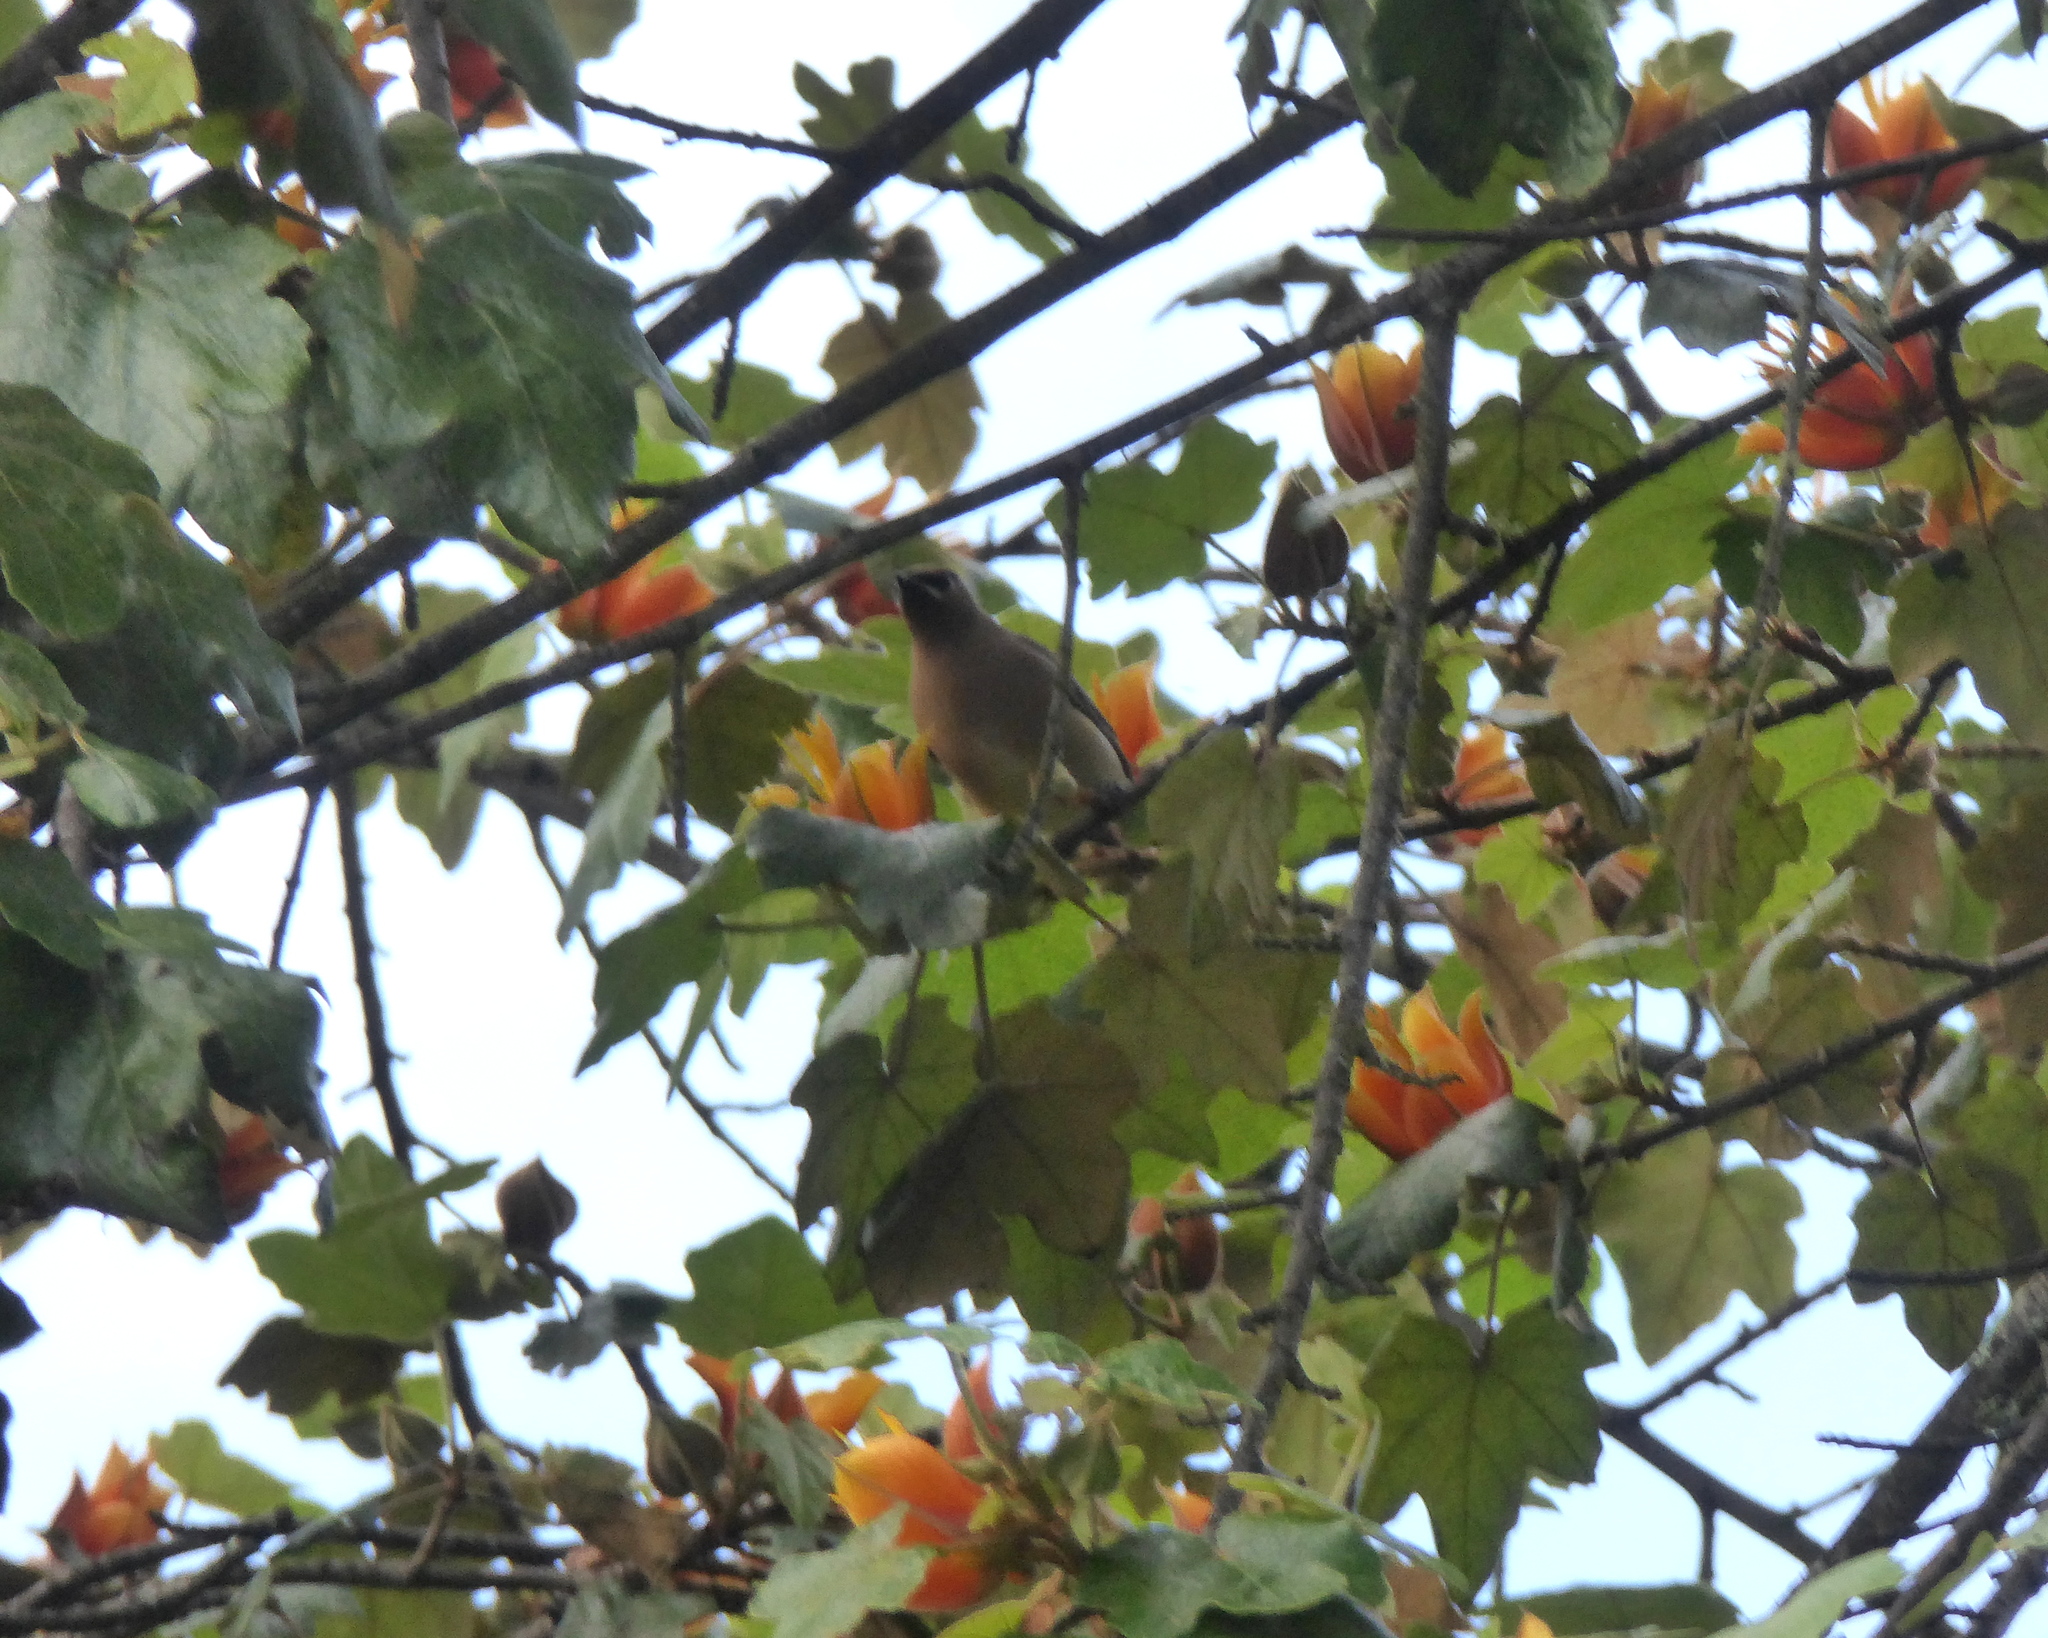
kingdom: Animalia
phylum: Chordata
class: Aves
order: Passeriformes
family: Bombycillidae
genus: Bombycilla
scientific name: Bombycilla cedrorum
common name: Cedar waxwing
